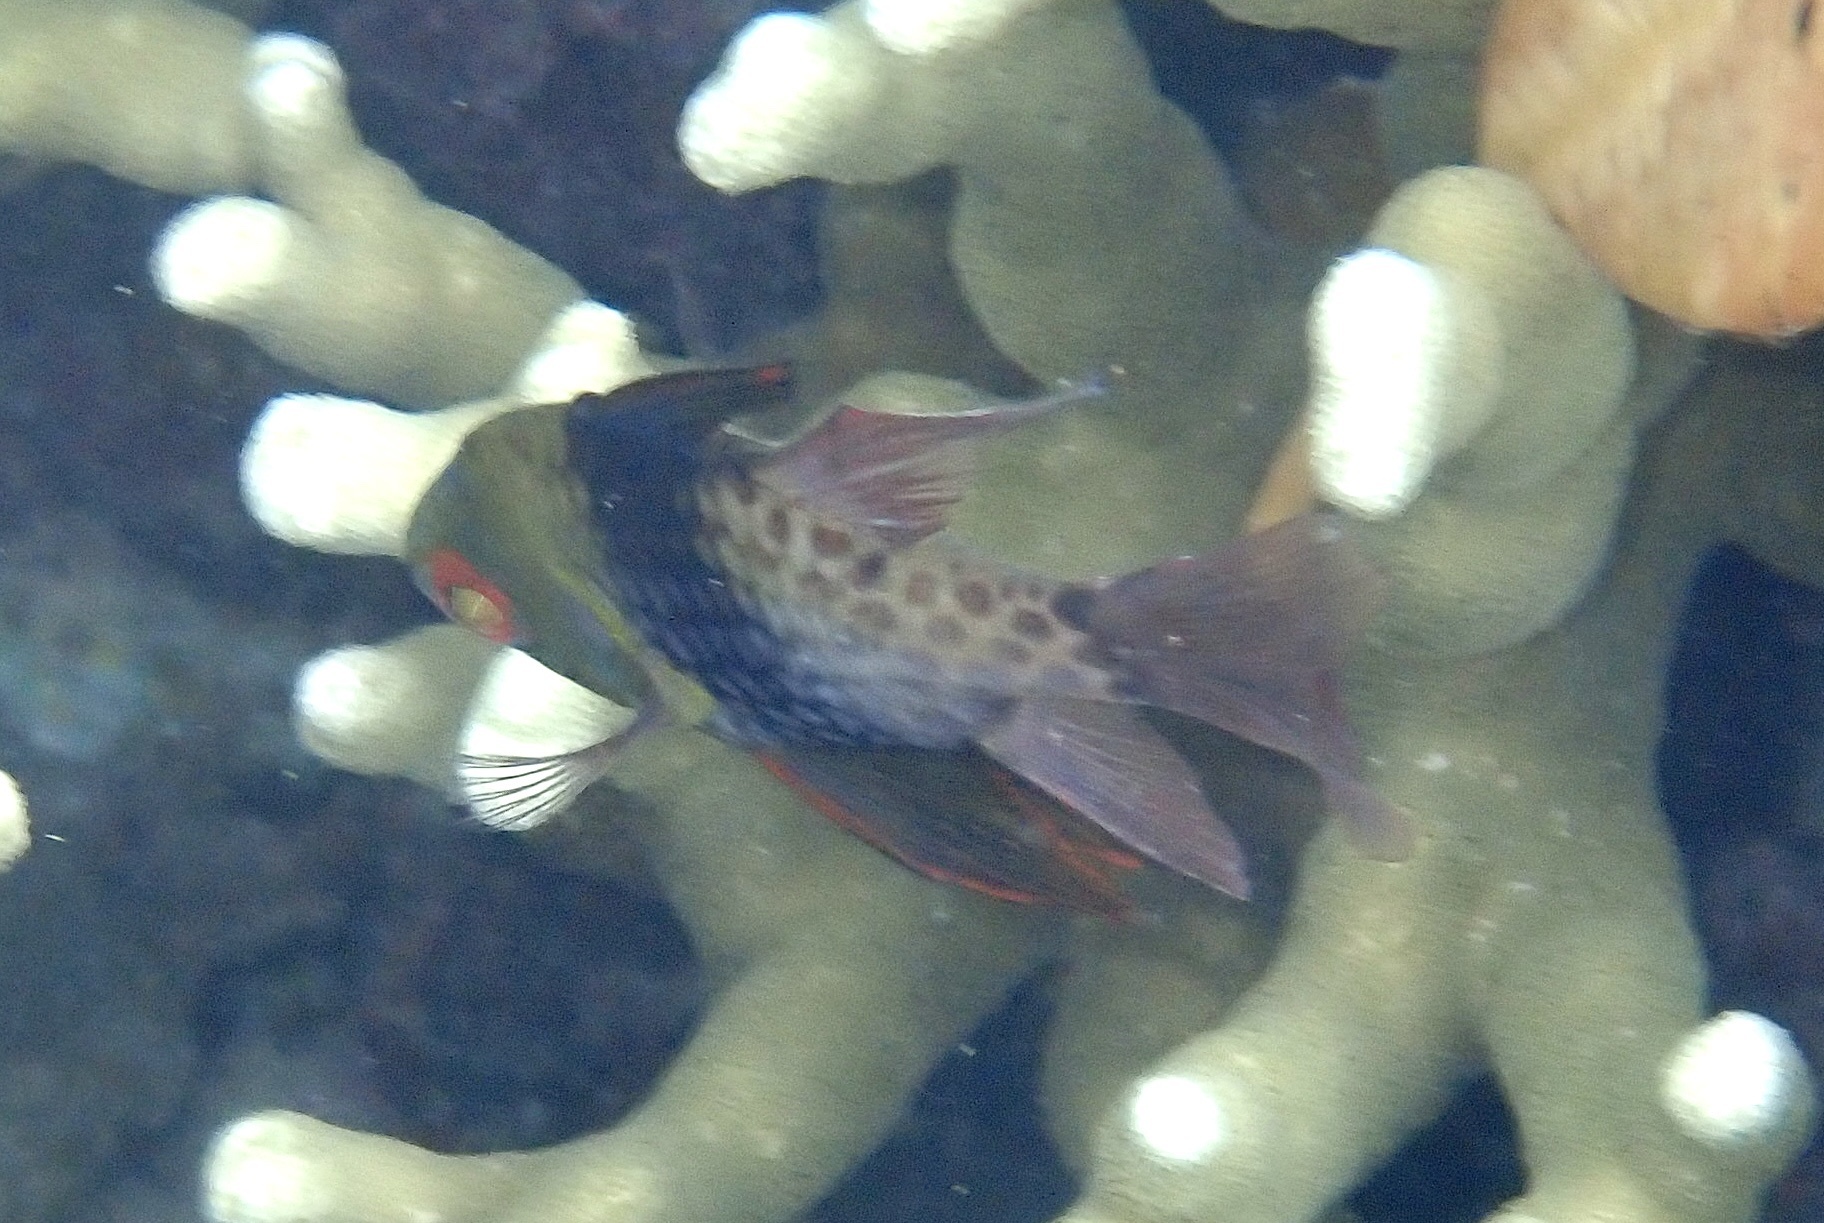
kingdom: Animalia
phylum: Chordata
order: Perciformes
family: Apogonidae
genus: Sphaeramia
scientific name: Sphaeramia nematoptera
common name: Pajama cardinalfish
